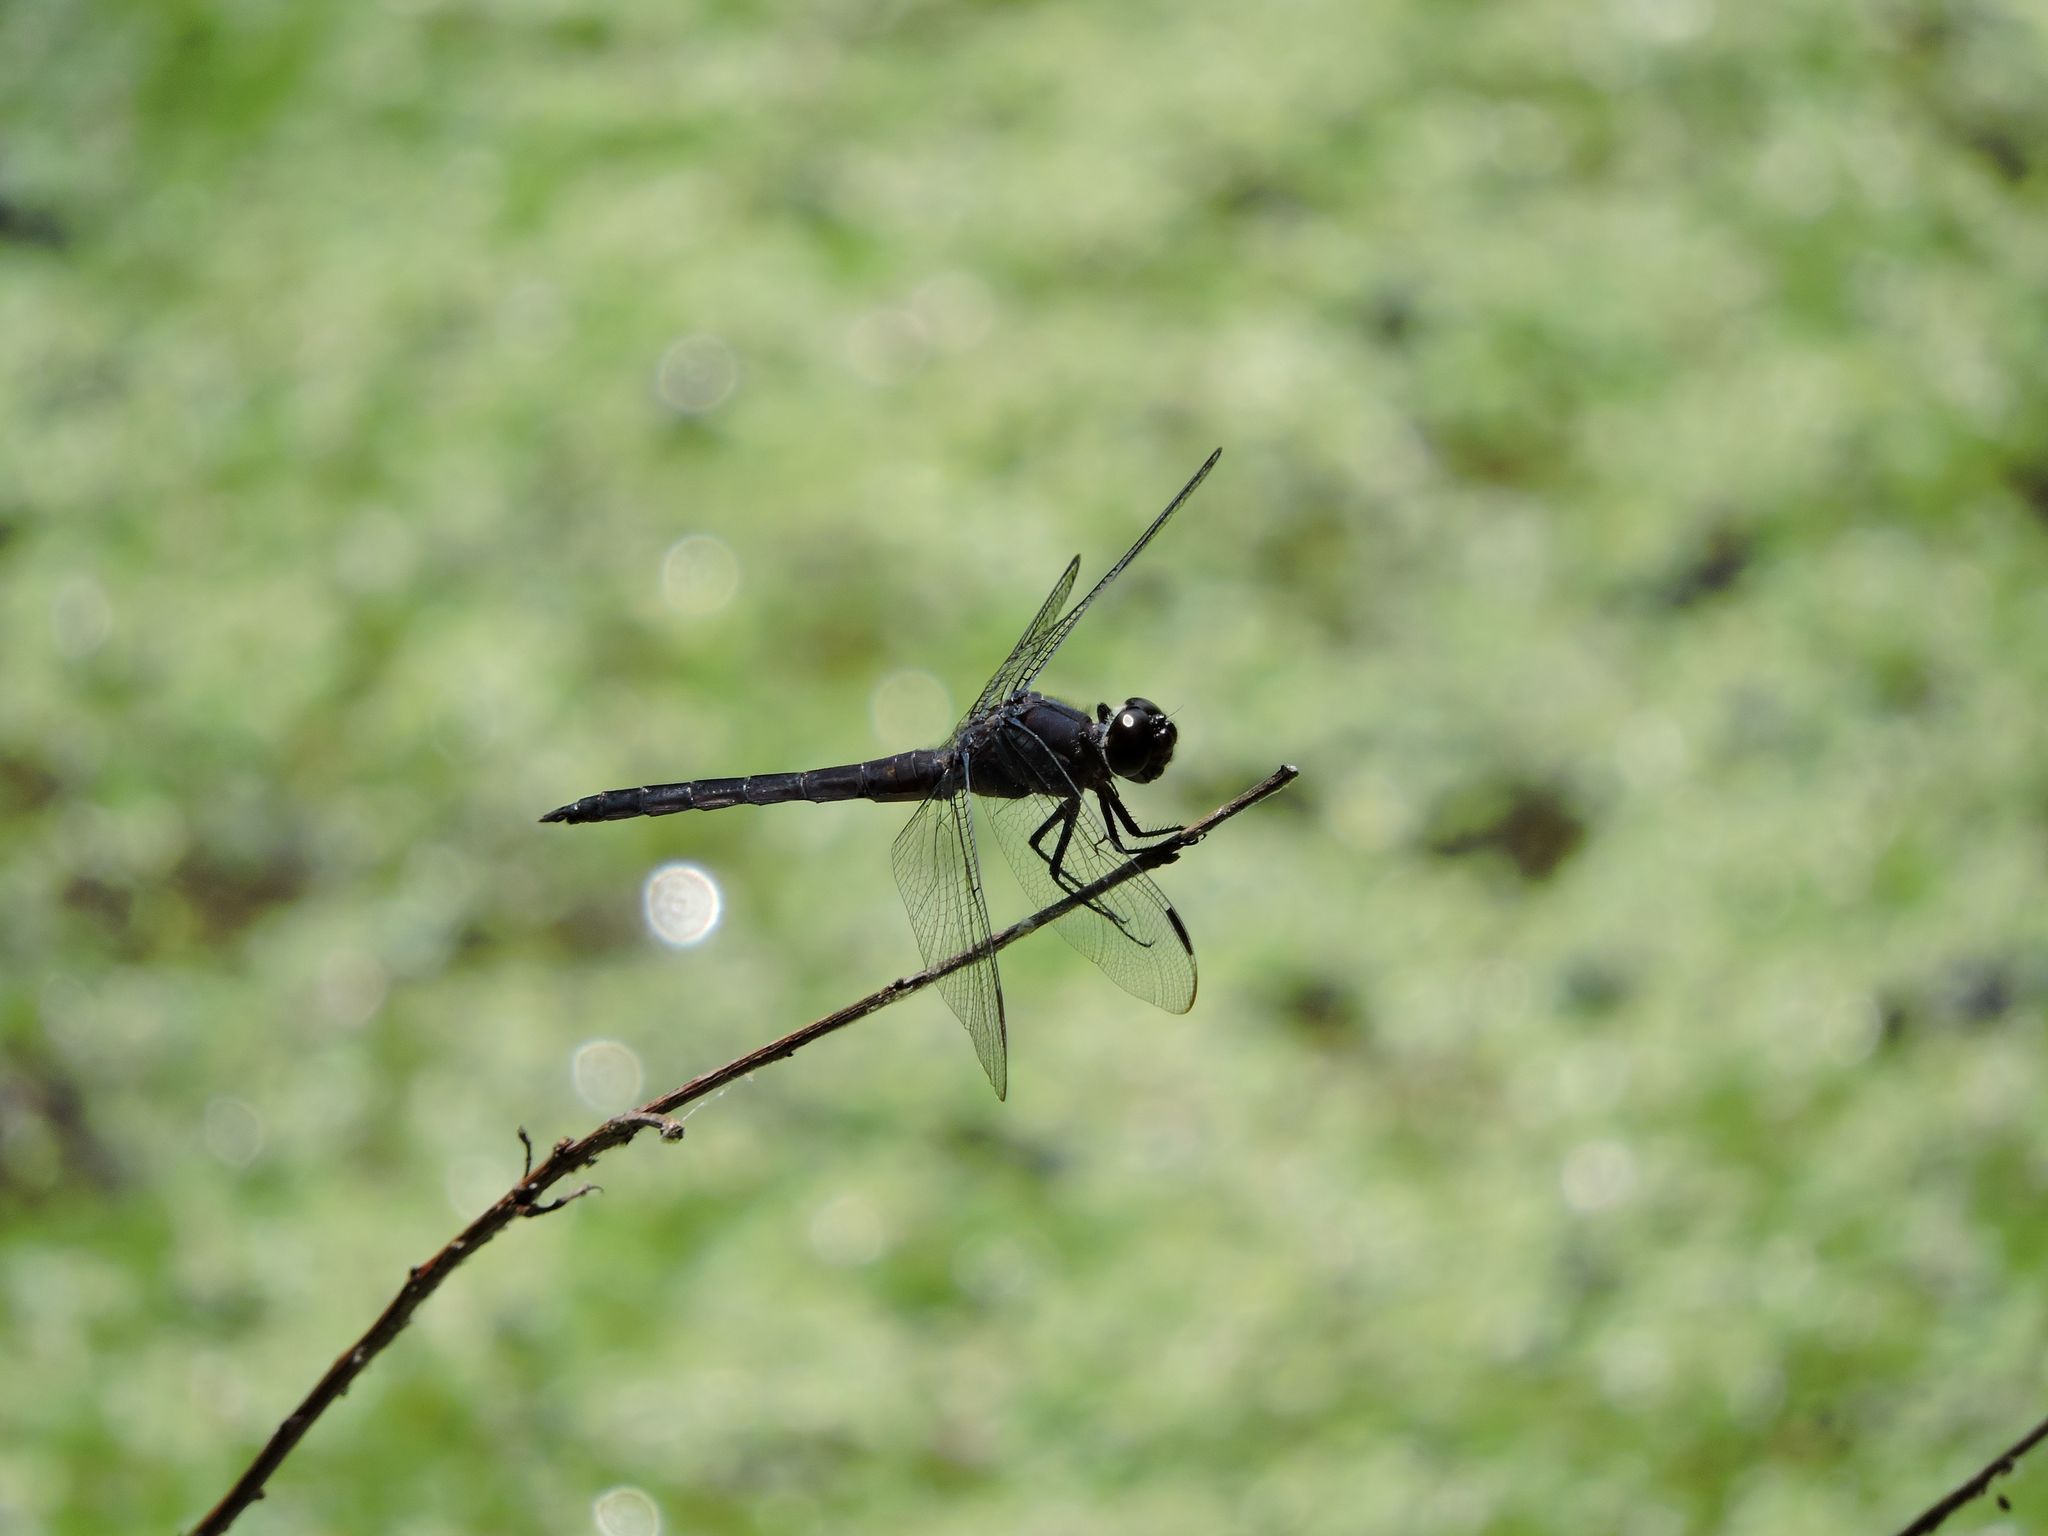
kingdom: Animalia
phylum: Arthropoda
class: Insecta
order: Odonata
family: Libellulidae
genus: Libellula
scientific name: Libellula incesta
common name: Slaty skimmer
